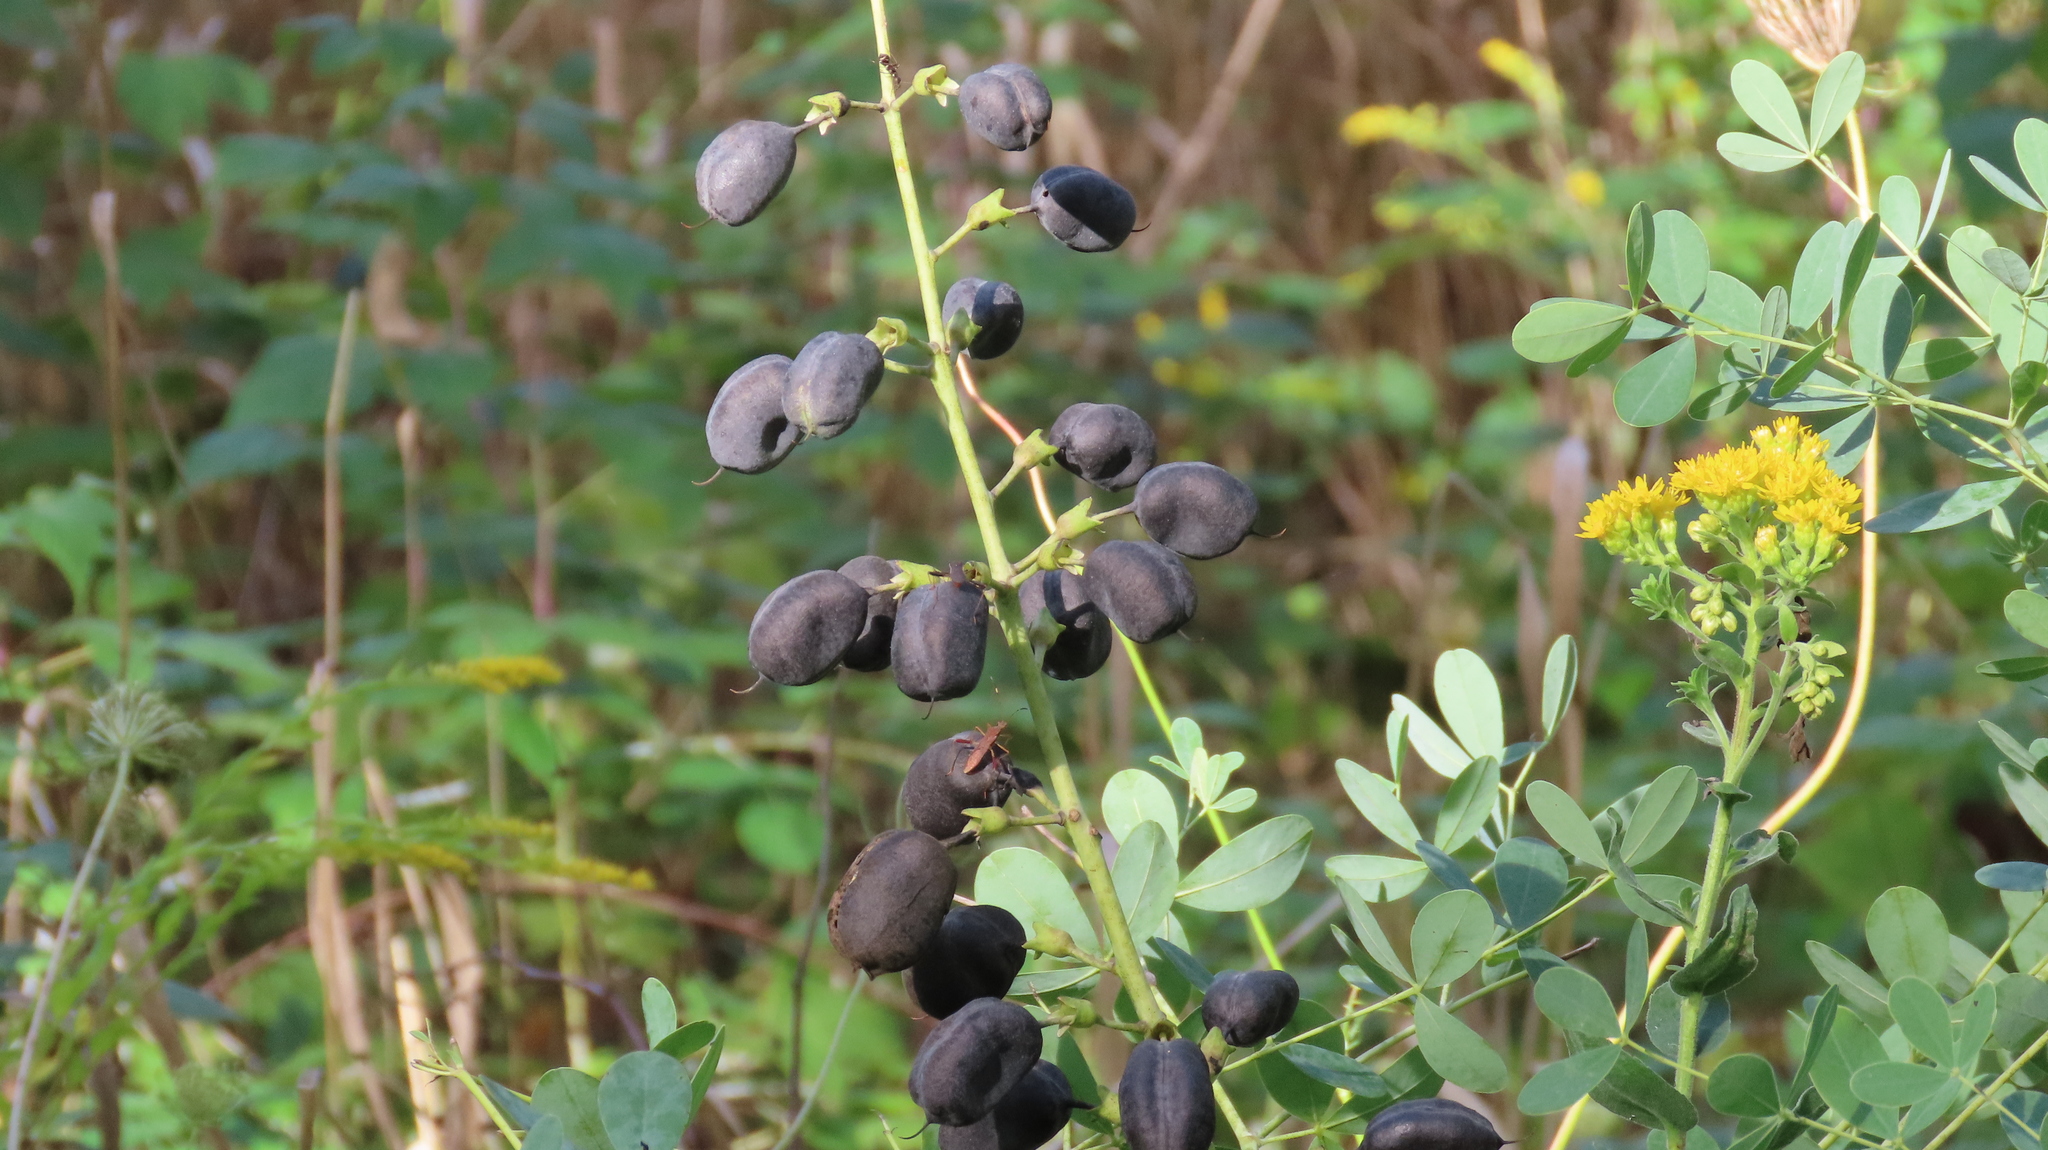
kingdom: Plantae
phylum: Tracheophyta
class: Magnoliopsida
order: Fabales
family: Fabaceae
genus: Baptisia
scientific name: Baptisia alba
